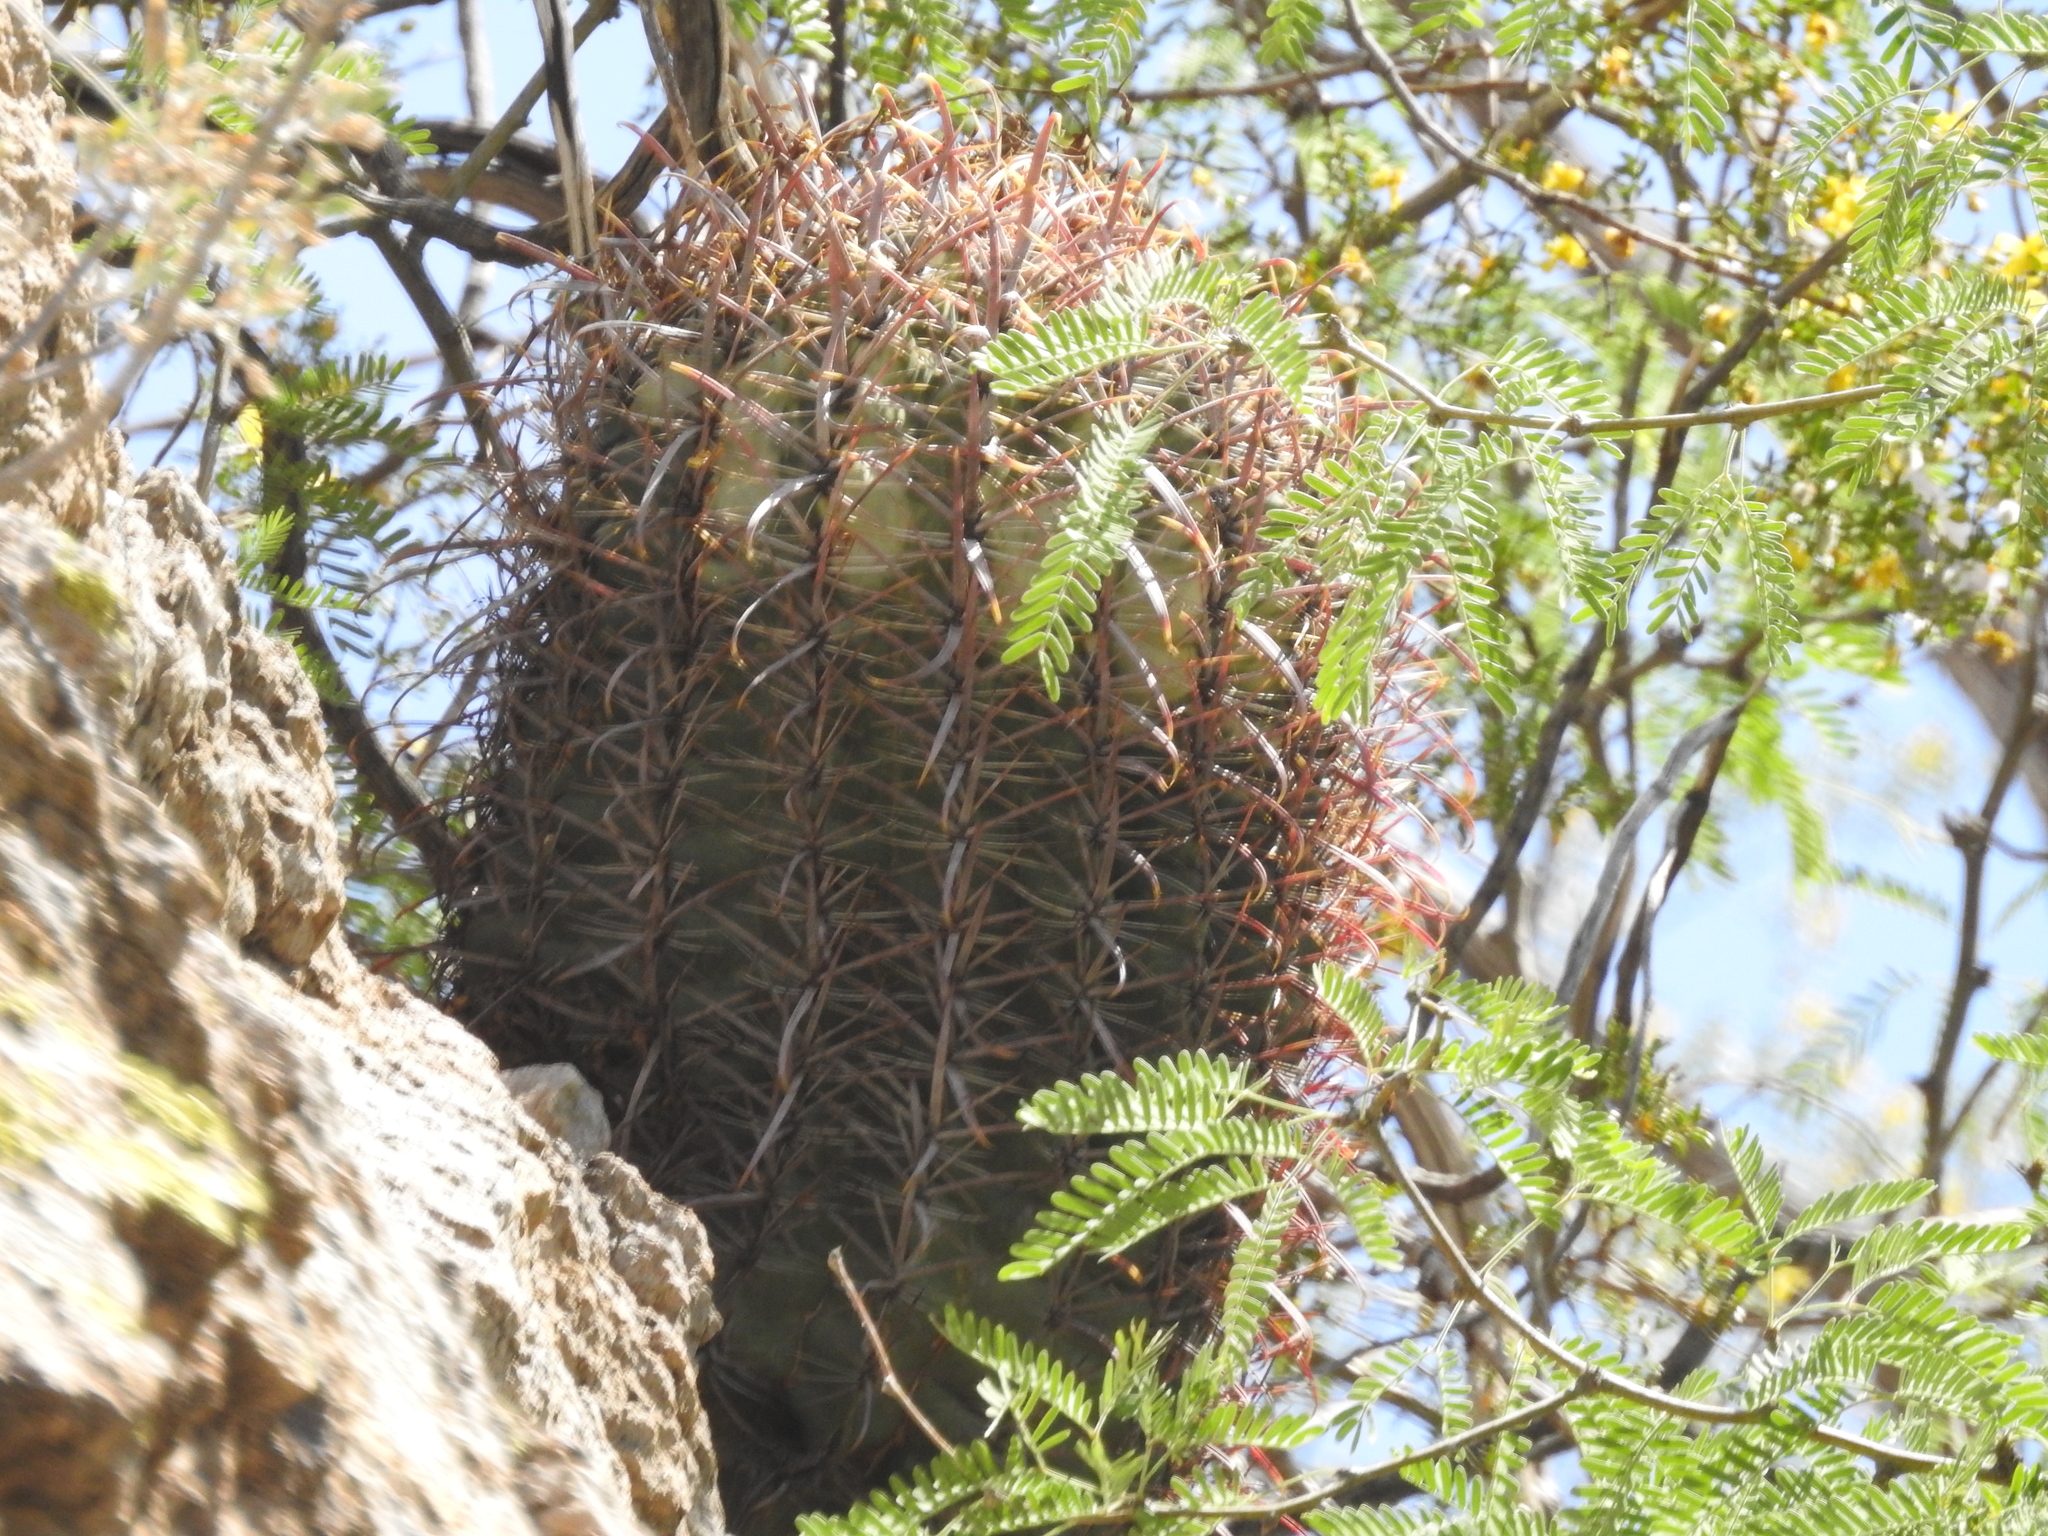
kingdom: Plantae
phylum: Tracheophyta
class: Magnoliopsida
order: Caryophyllales
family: Cactaceae
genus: Ferocactus
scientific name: Ferocactus cylindraceus
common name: California barrel cactus
